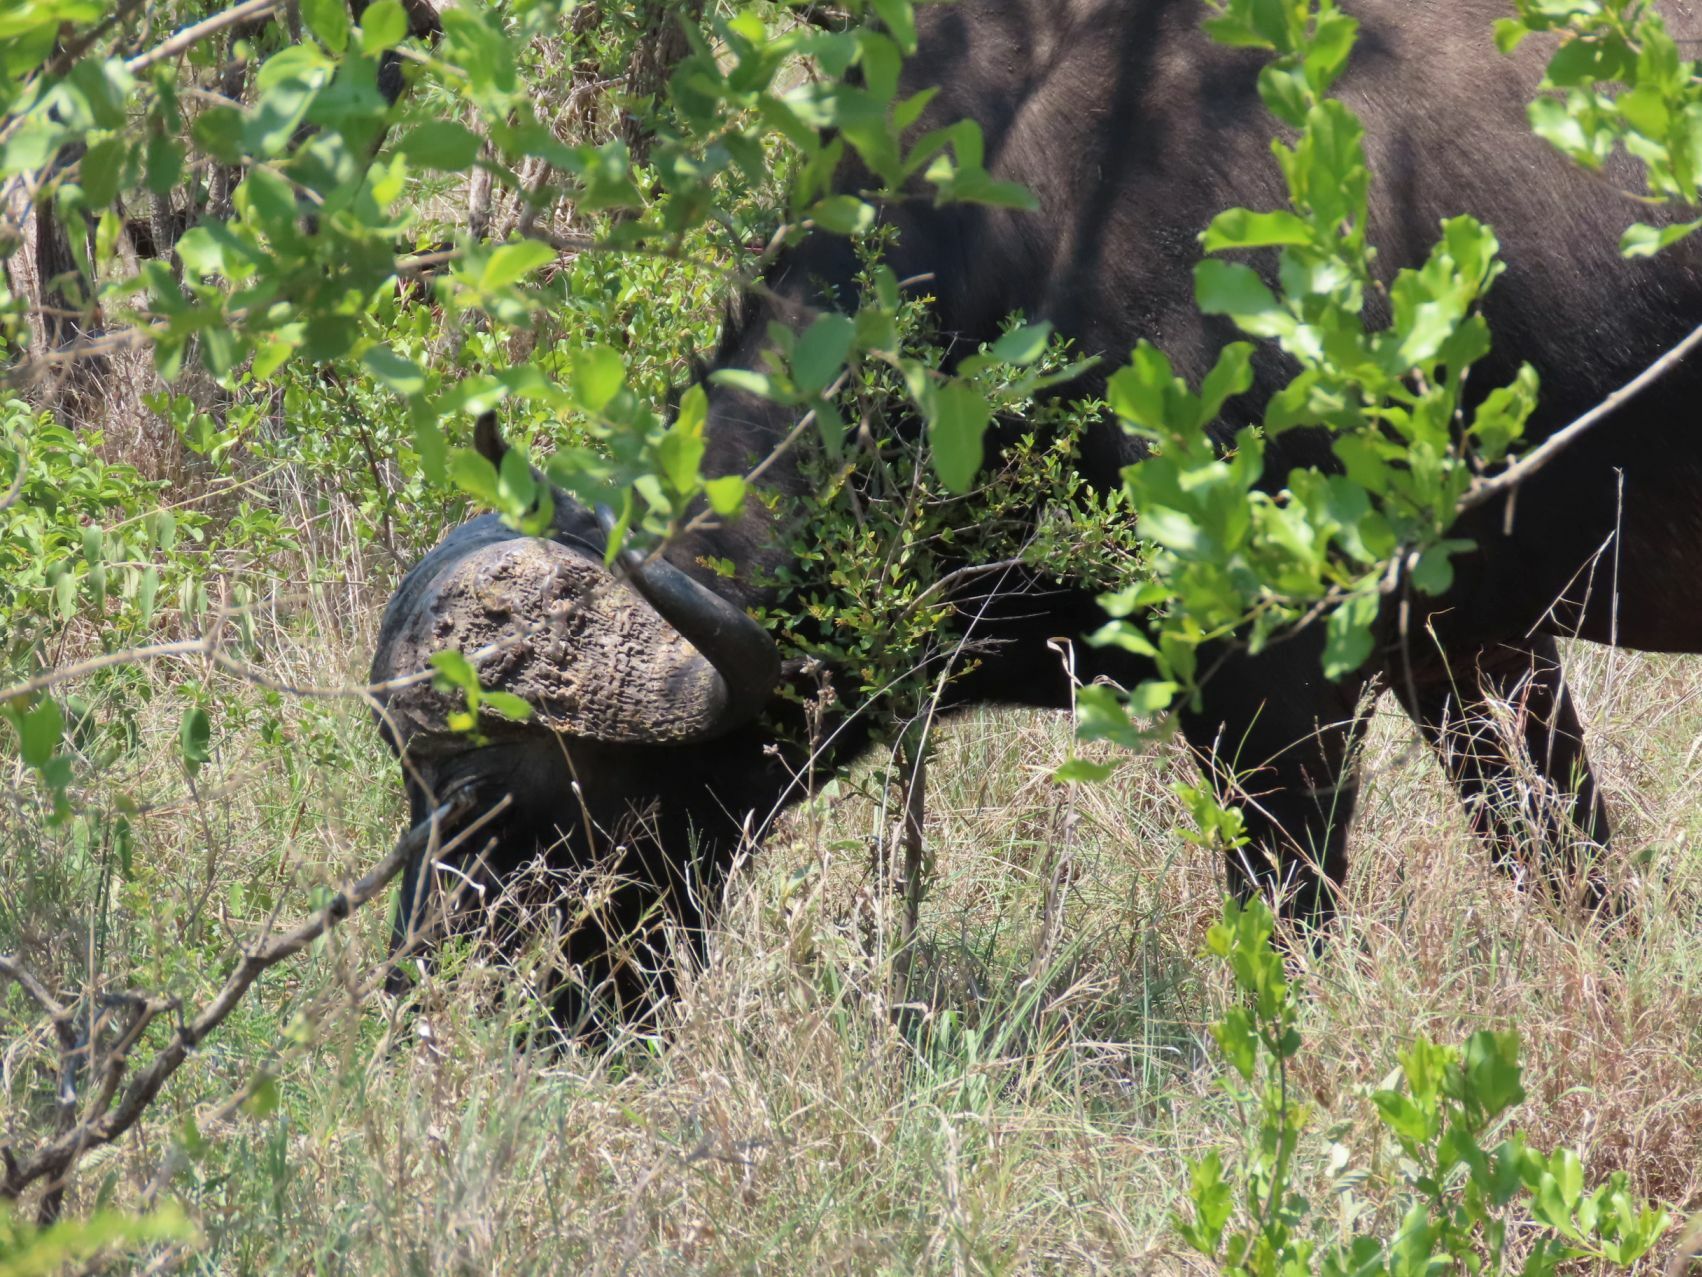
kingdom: Animalia
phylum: Chordata
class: Mammalia
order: Artiodactyla
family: Bovidae
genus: Syncerus
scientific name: Syncerus caffer
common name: African buffalo
